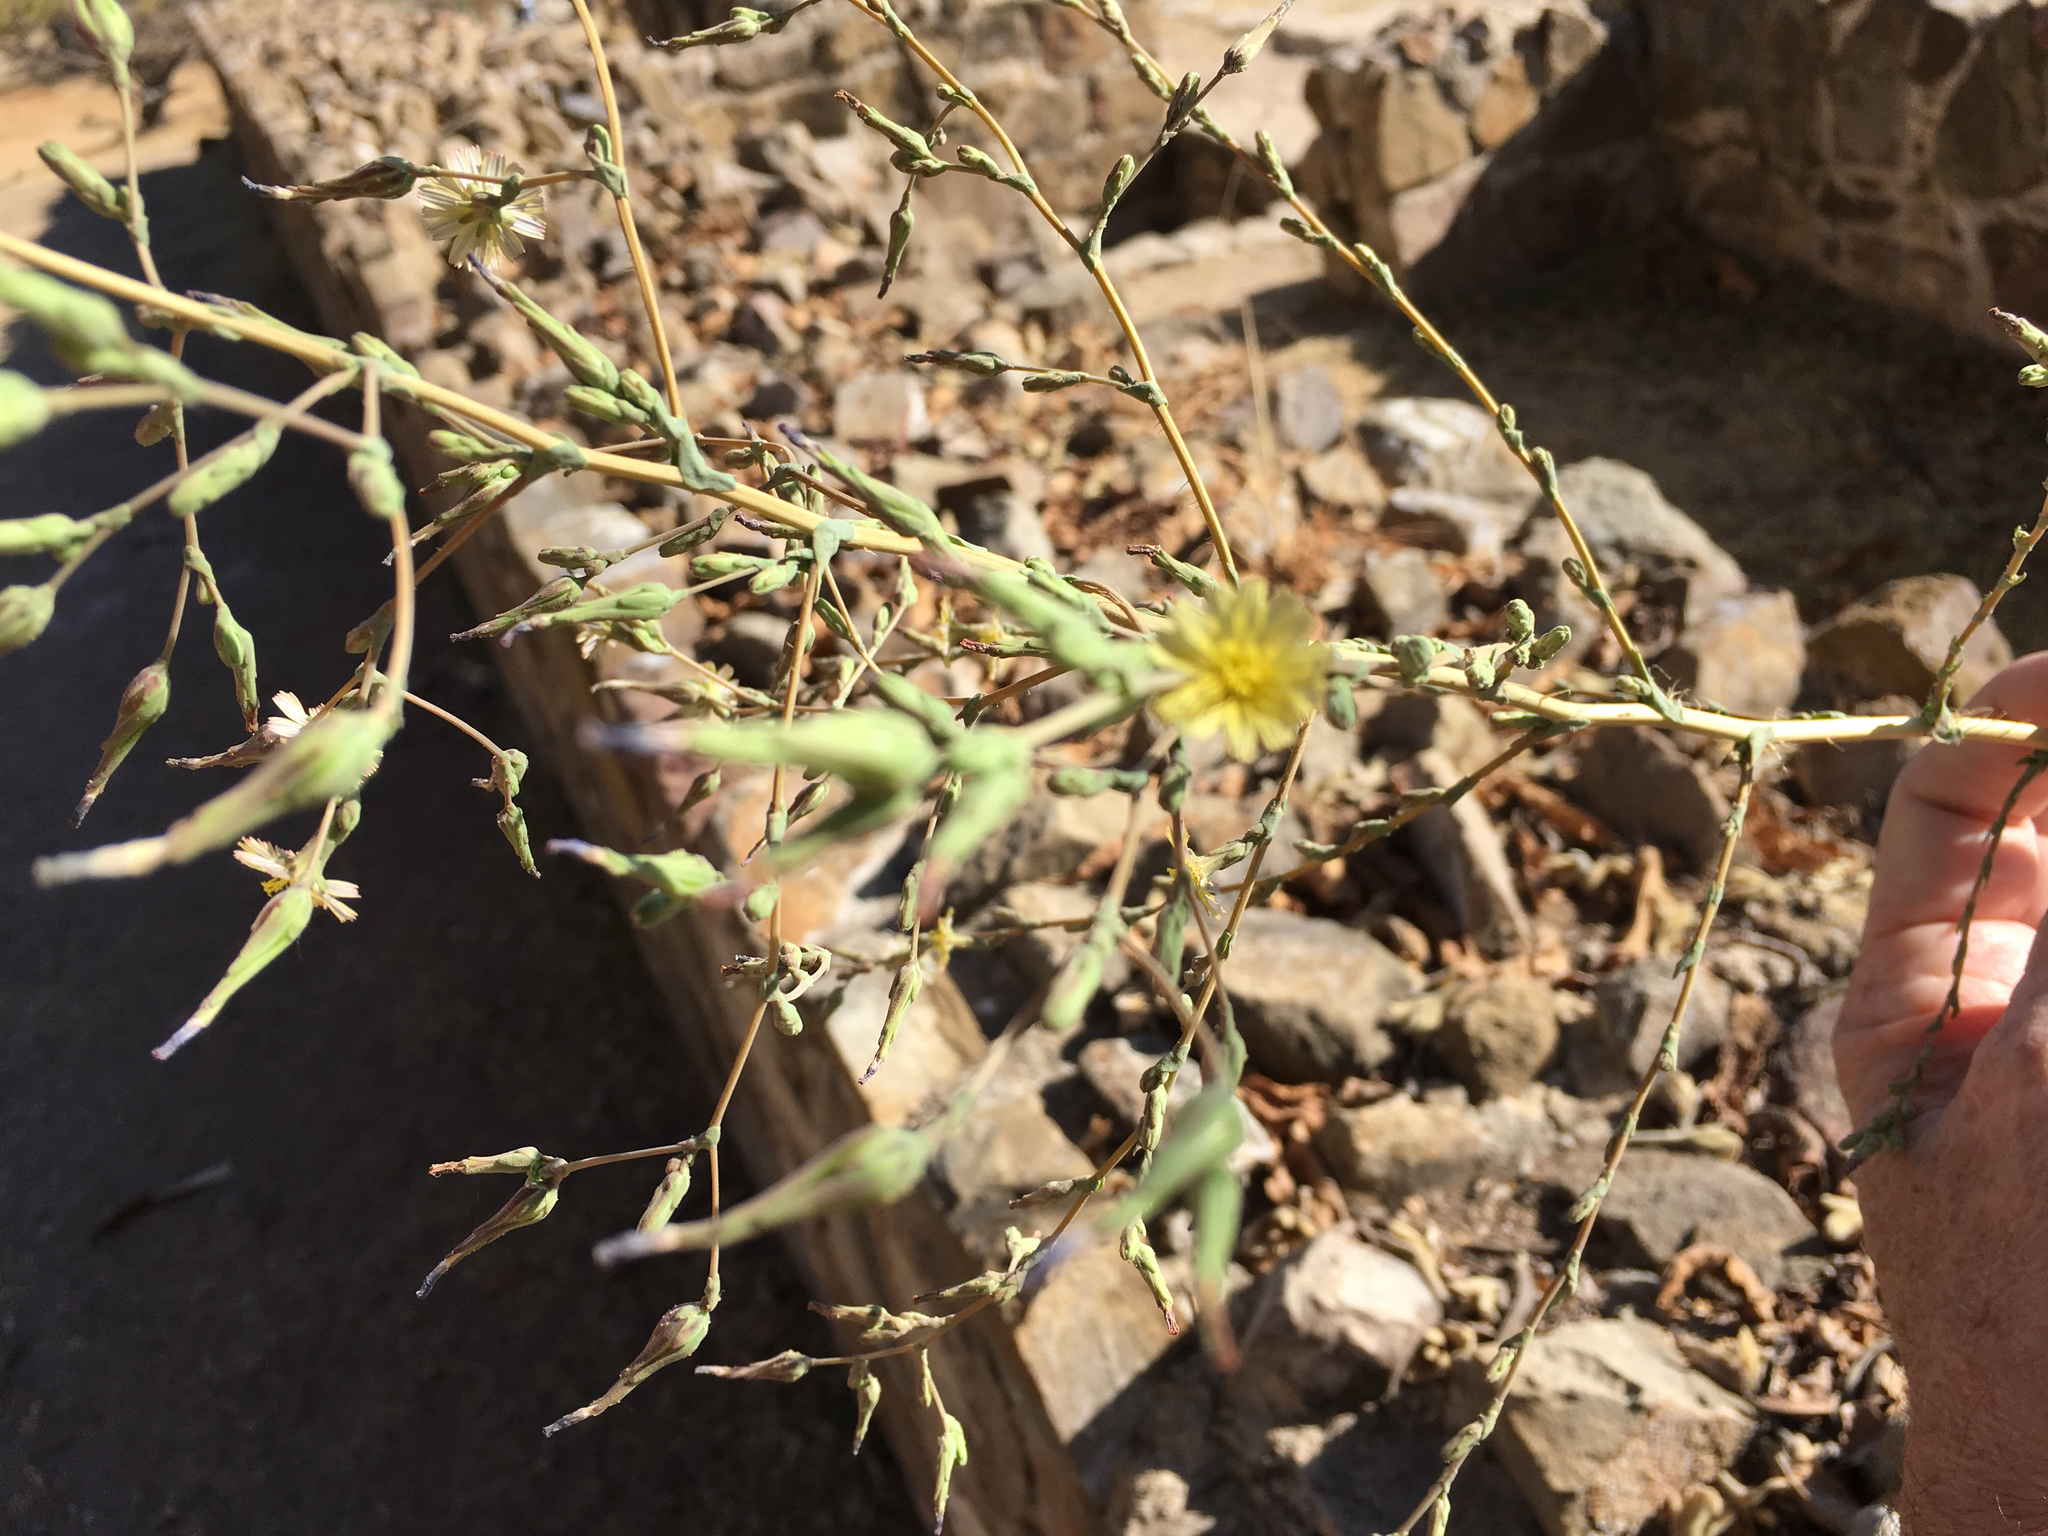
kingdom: Plantae
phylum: Tracheophyta
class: Magnoliopsida
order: Asterales
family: Asteraceae
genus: Lactuca
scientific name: Lactuca serriola
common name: Prickly lettuce
